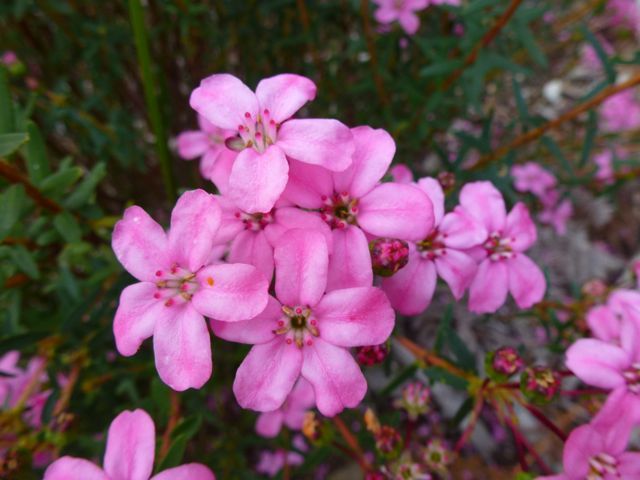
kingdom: Plantae
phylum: Tracheophyta
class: Magnoliopsida
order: Sapindales
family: Rutaceae
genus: Adenandra
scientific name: Adenandra fragrans
